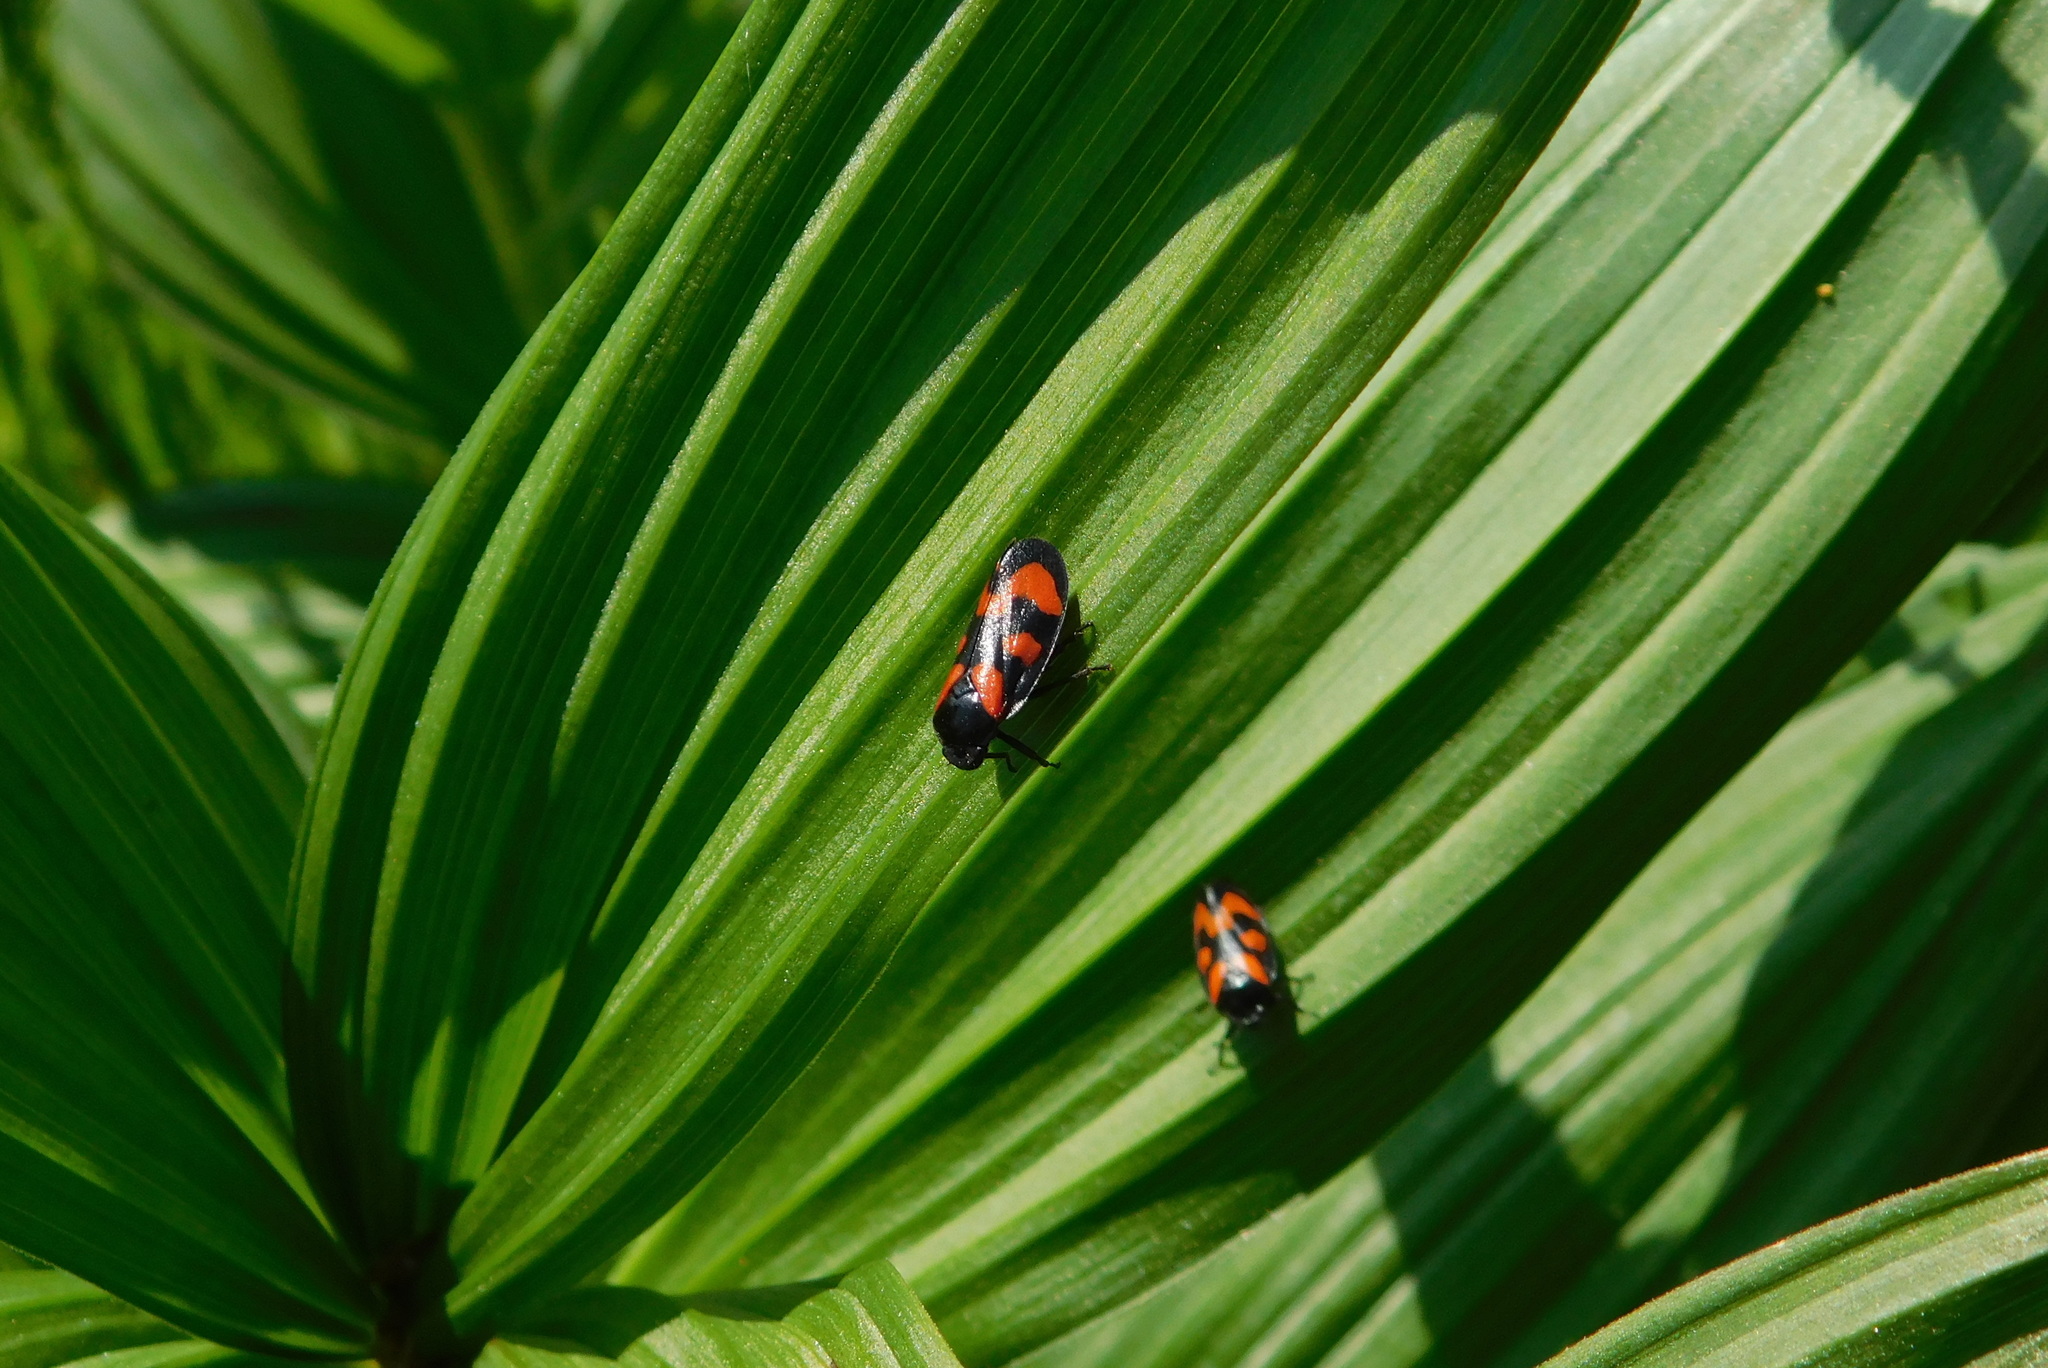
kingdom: Animalia
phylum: Arthropoda
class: Insecta
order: Hemiptera
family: Cercopidae
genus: Cercopis
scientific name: Cercopis vulnerata
